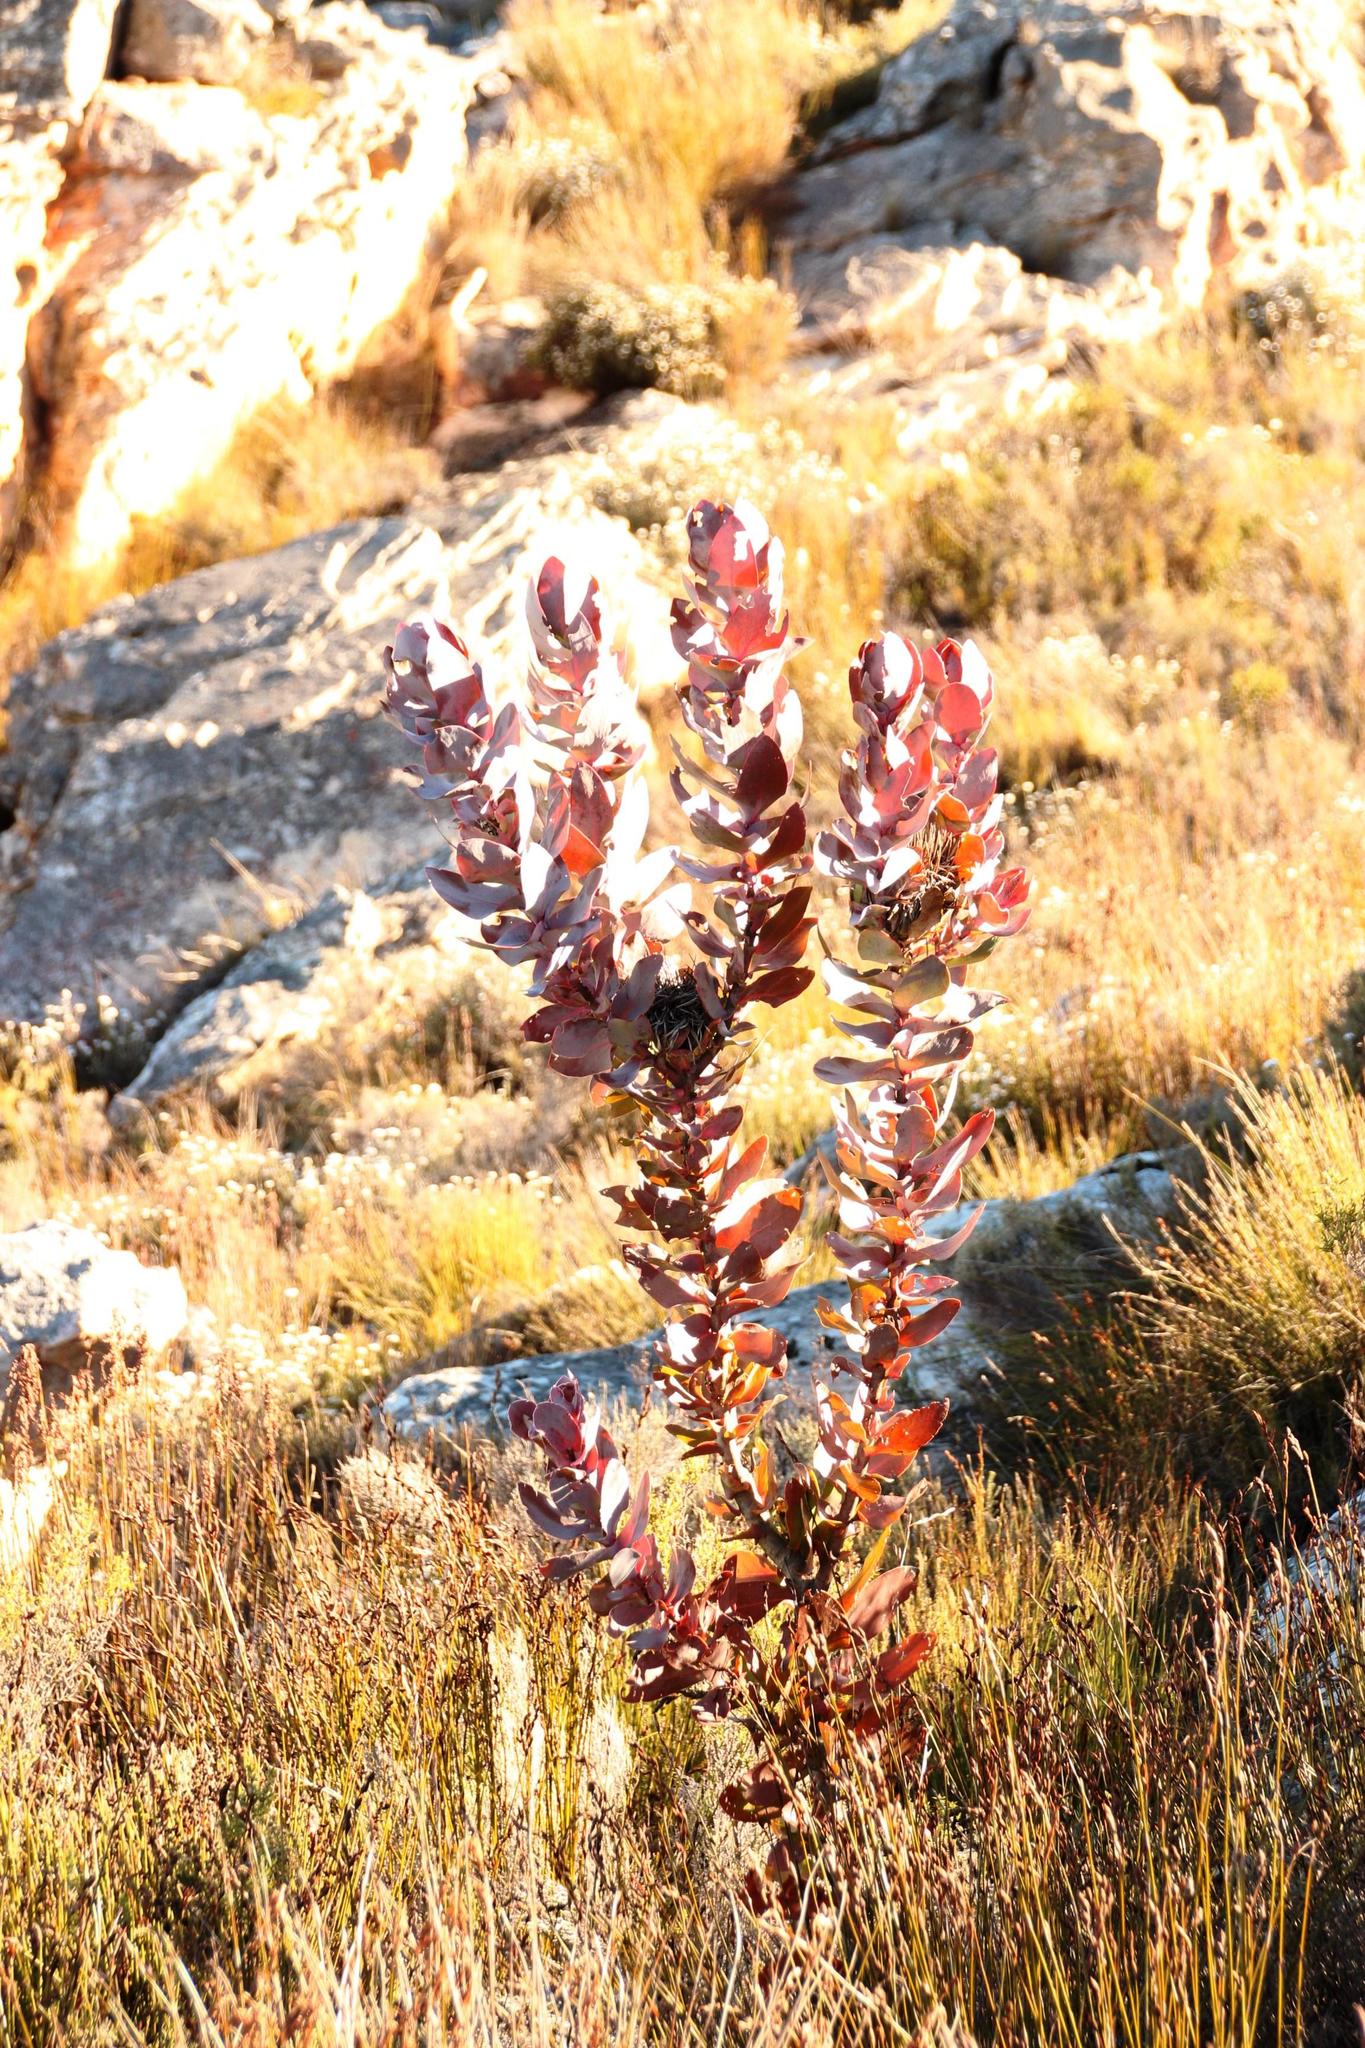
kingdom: Plantae
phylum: Tracheophyta
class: Magnoliopsida
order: Proteales
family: Proteaceae
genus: Protea
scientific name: Protea eximia
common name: Broad-leaved sugarbush
